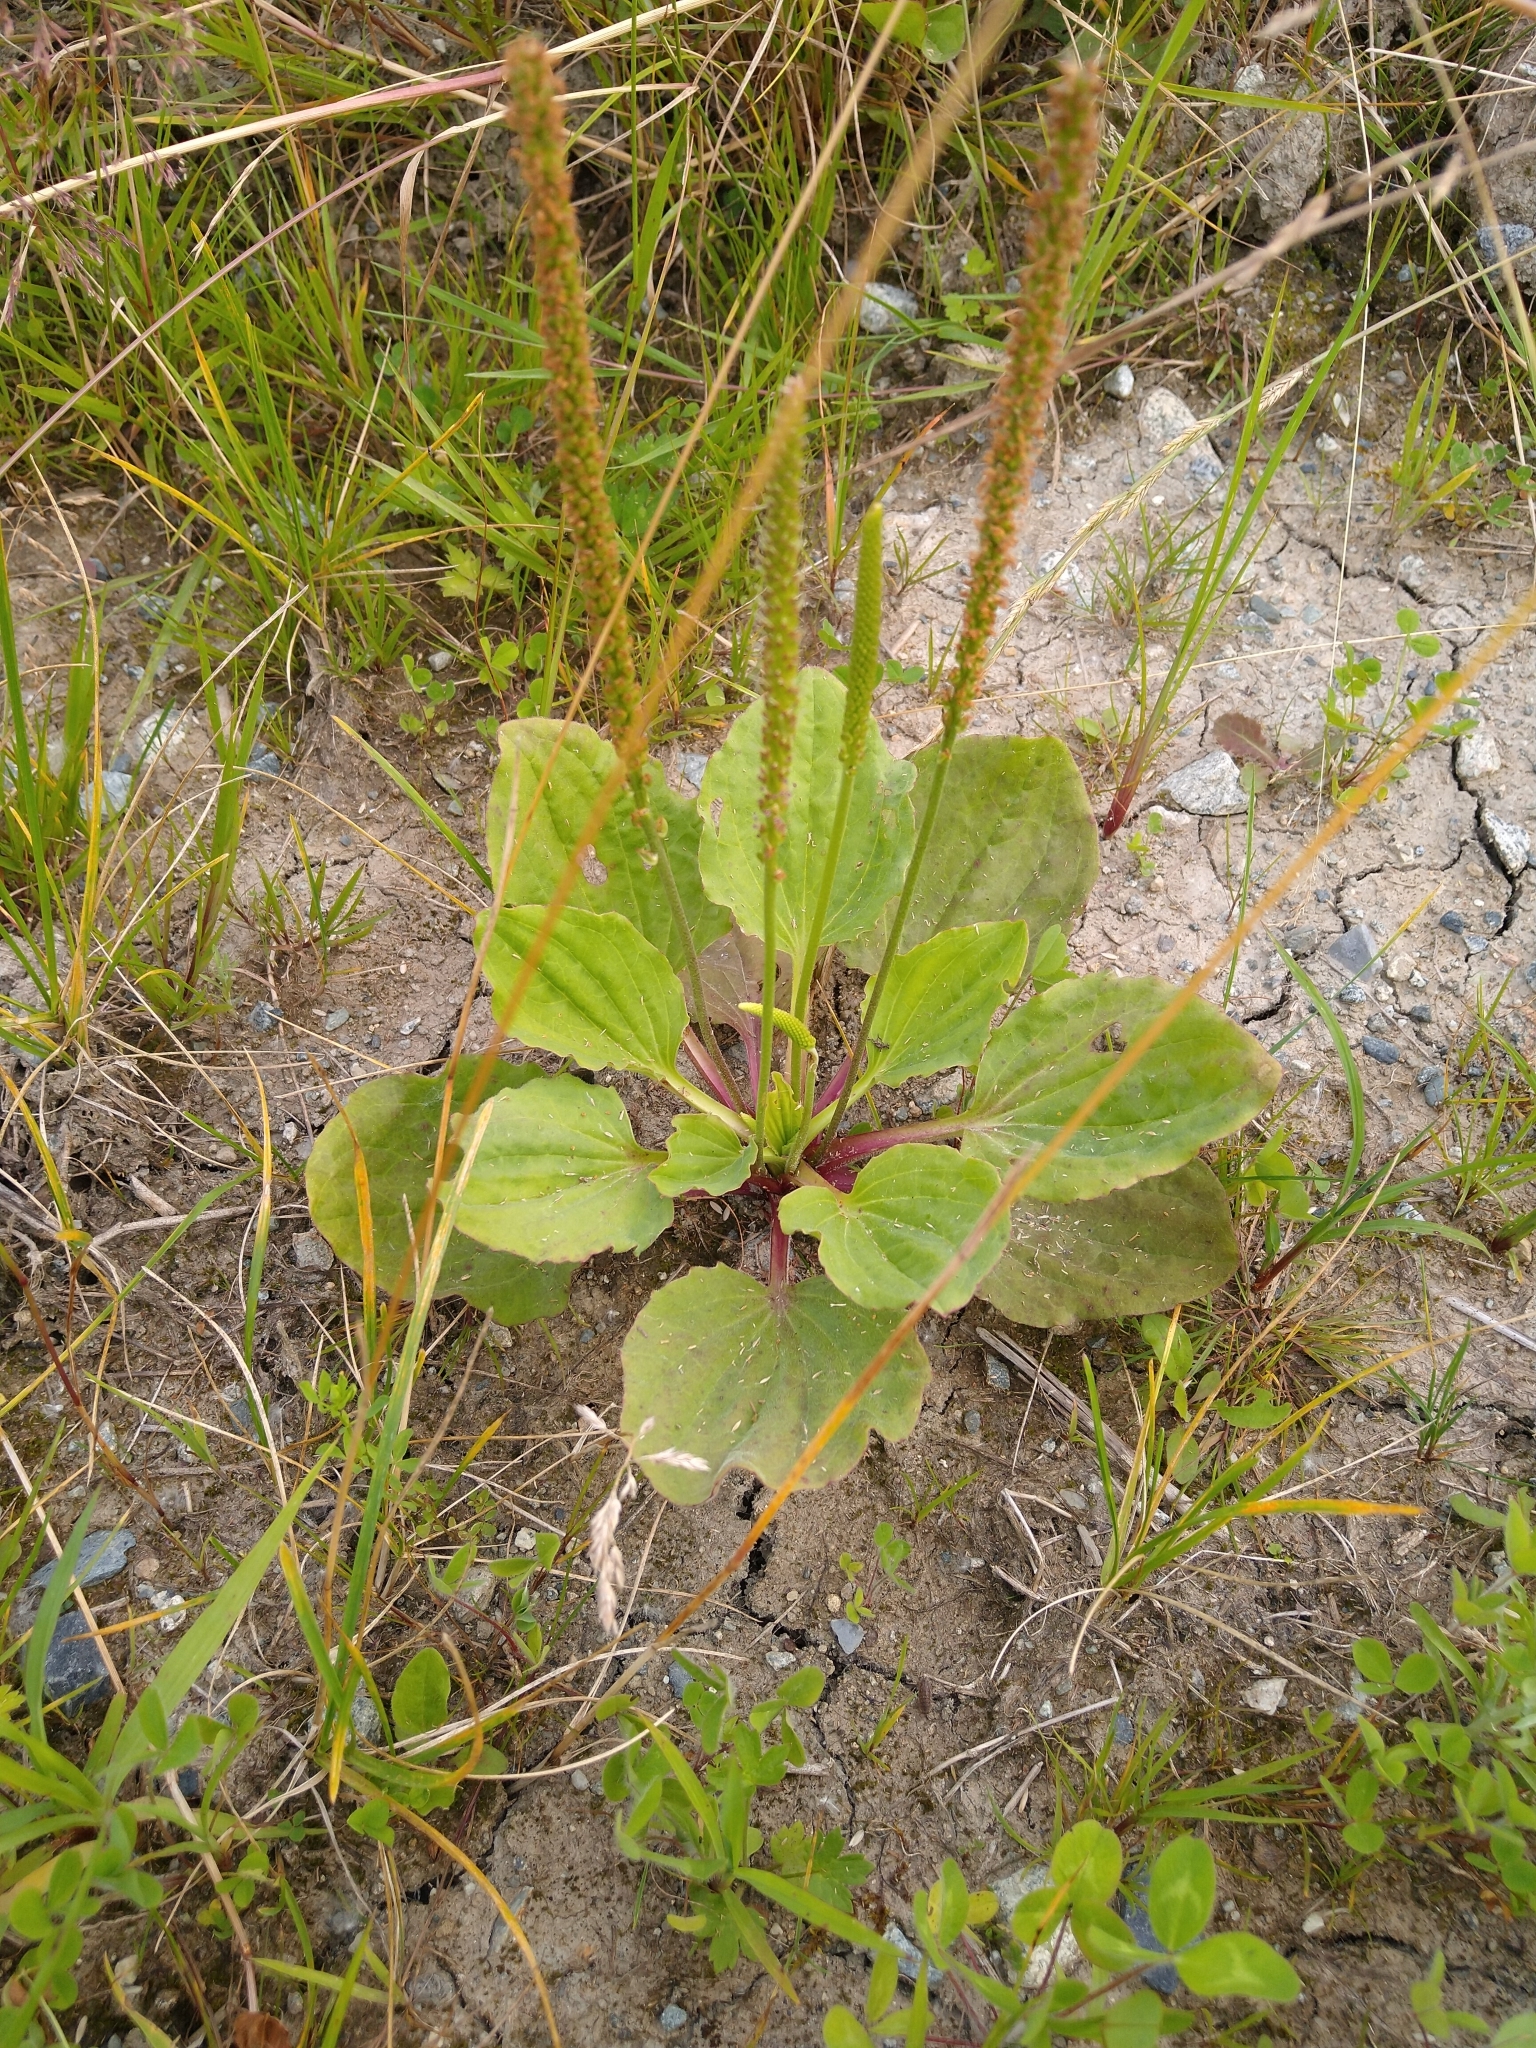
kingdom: Plantae
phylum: Tracheophyta
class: Magnoliopsida
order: Lamiales
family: Plantaginaceae
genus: Plantago
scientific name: Plantago major
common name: Common plantain
